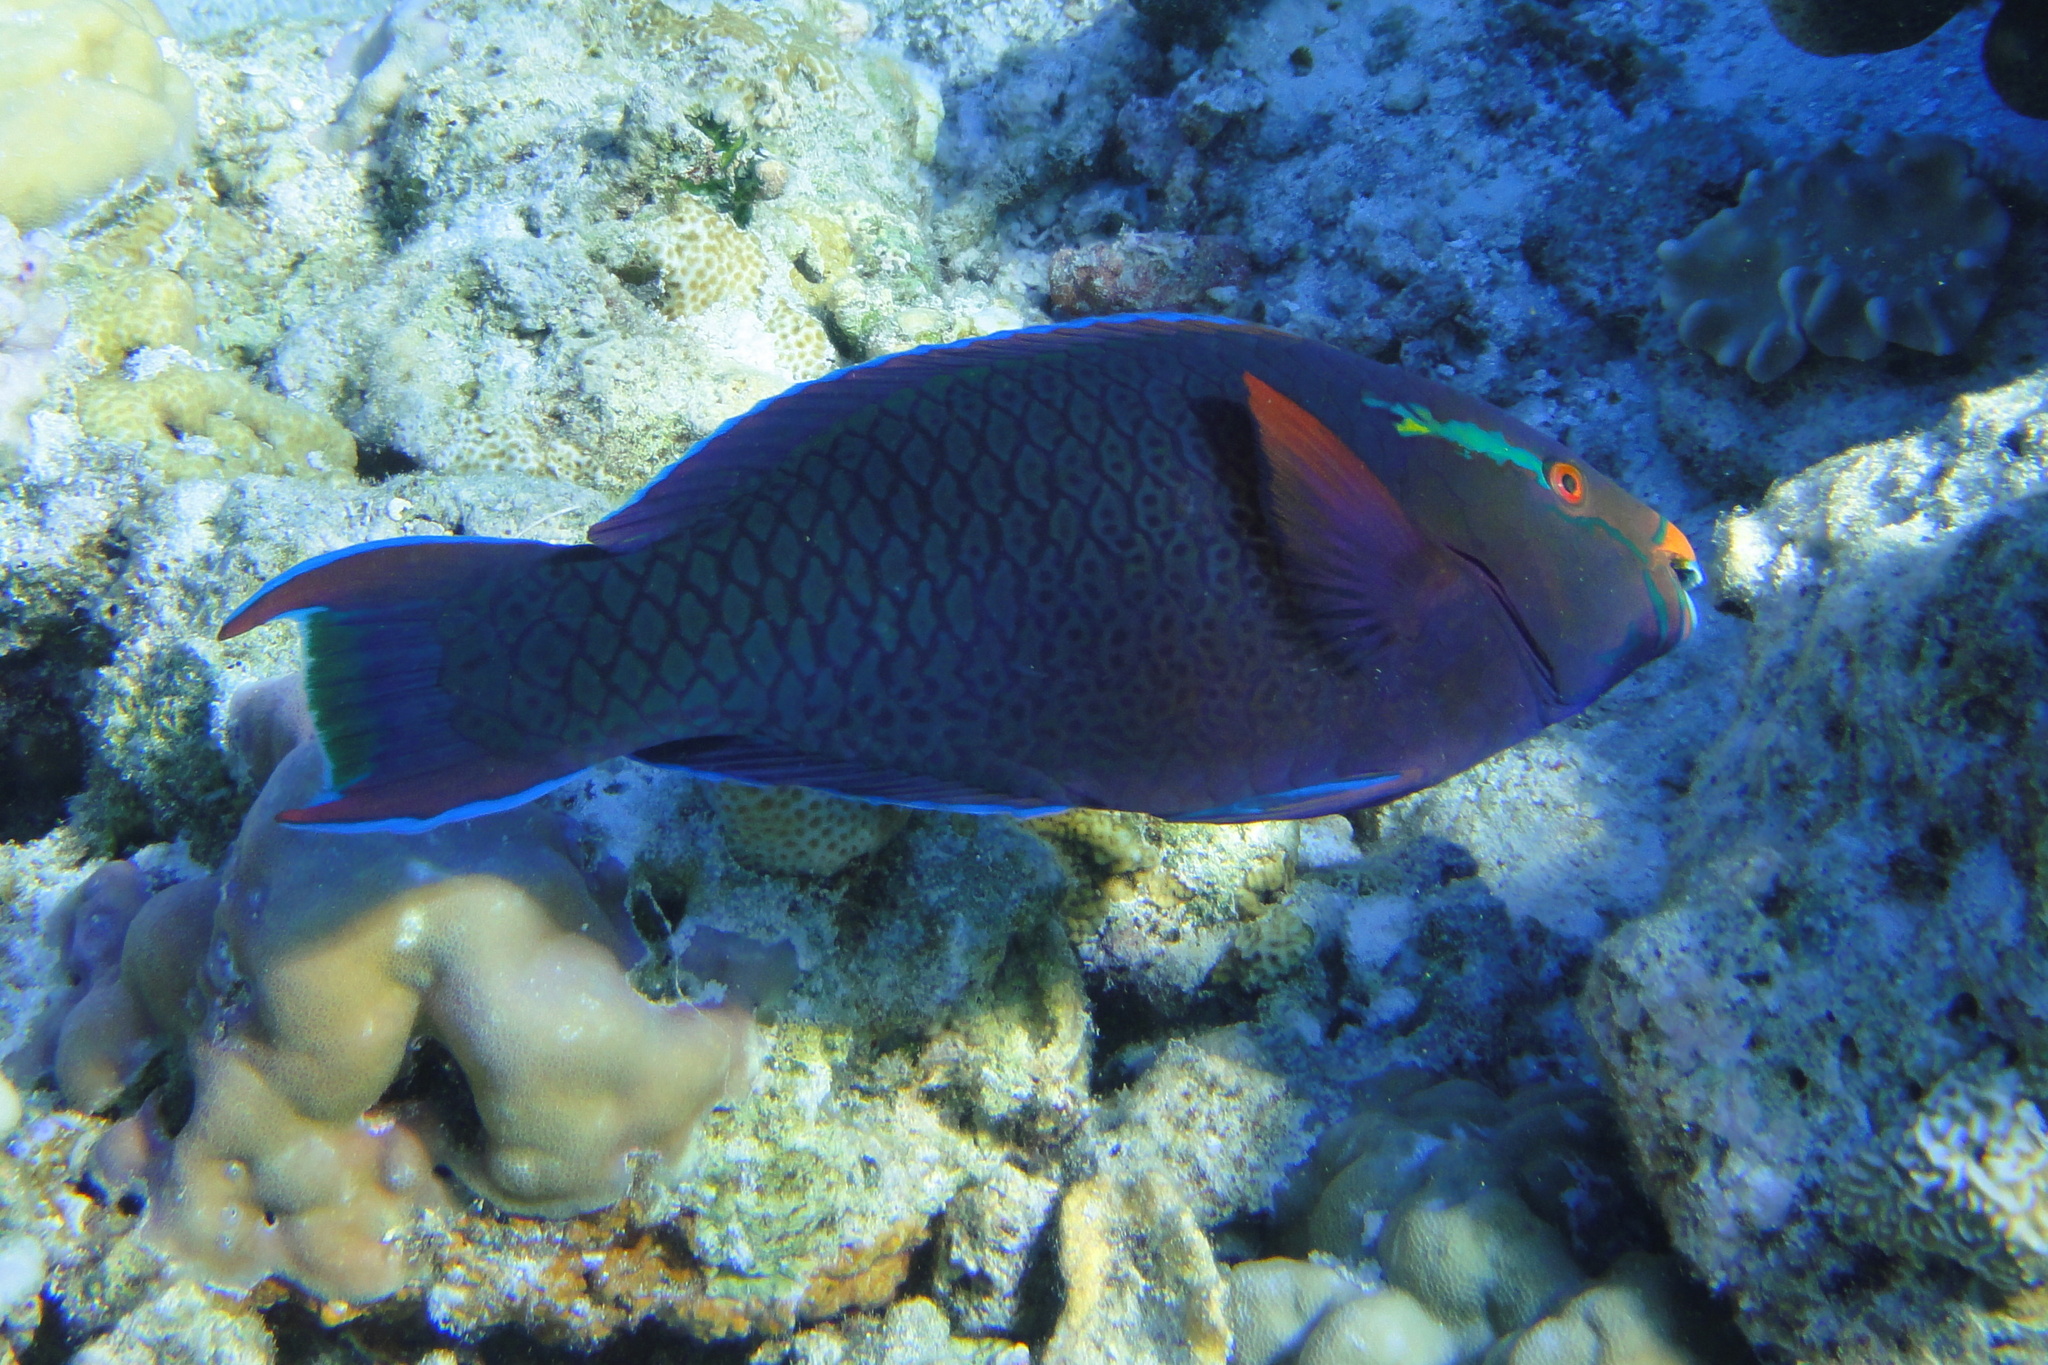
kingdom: Animalia
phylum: Chordata
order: Perciformes
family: Scaridae
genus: Scarus
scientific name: Scarus niger
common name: Dusky parrotfish
